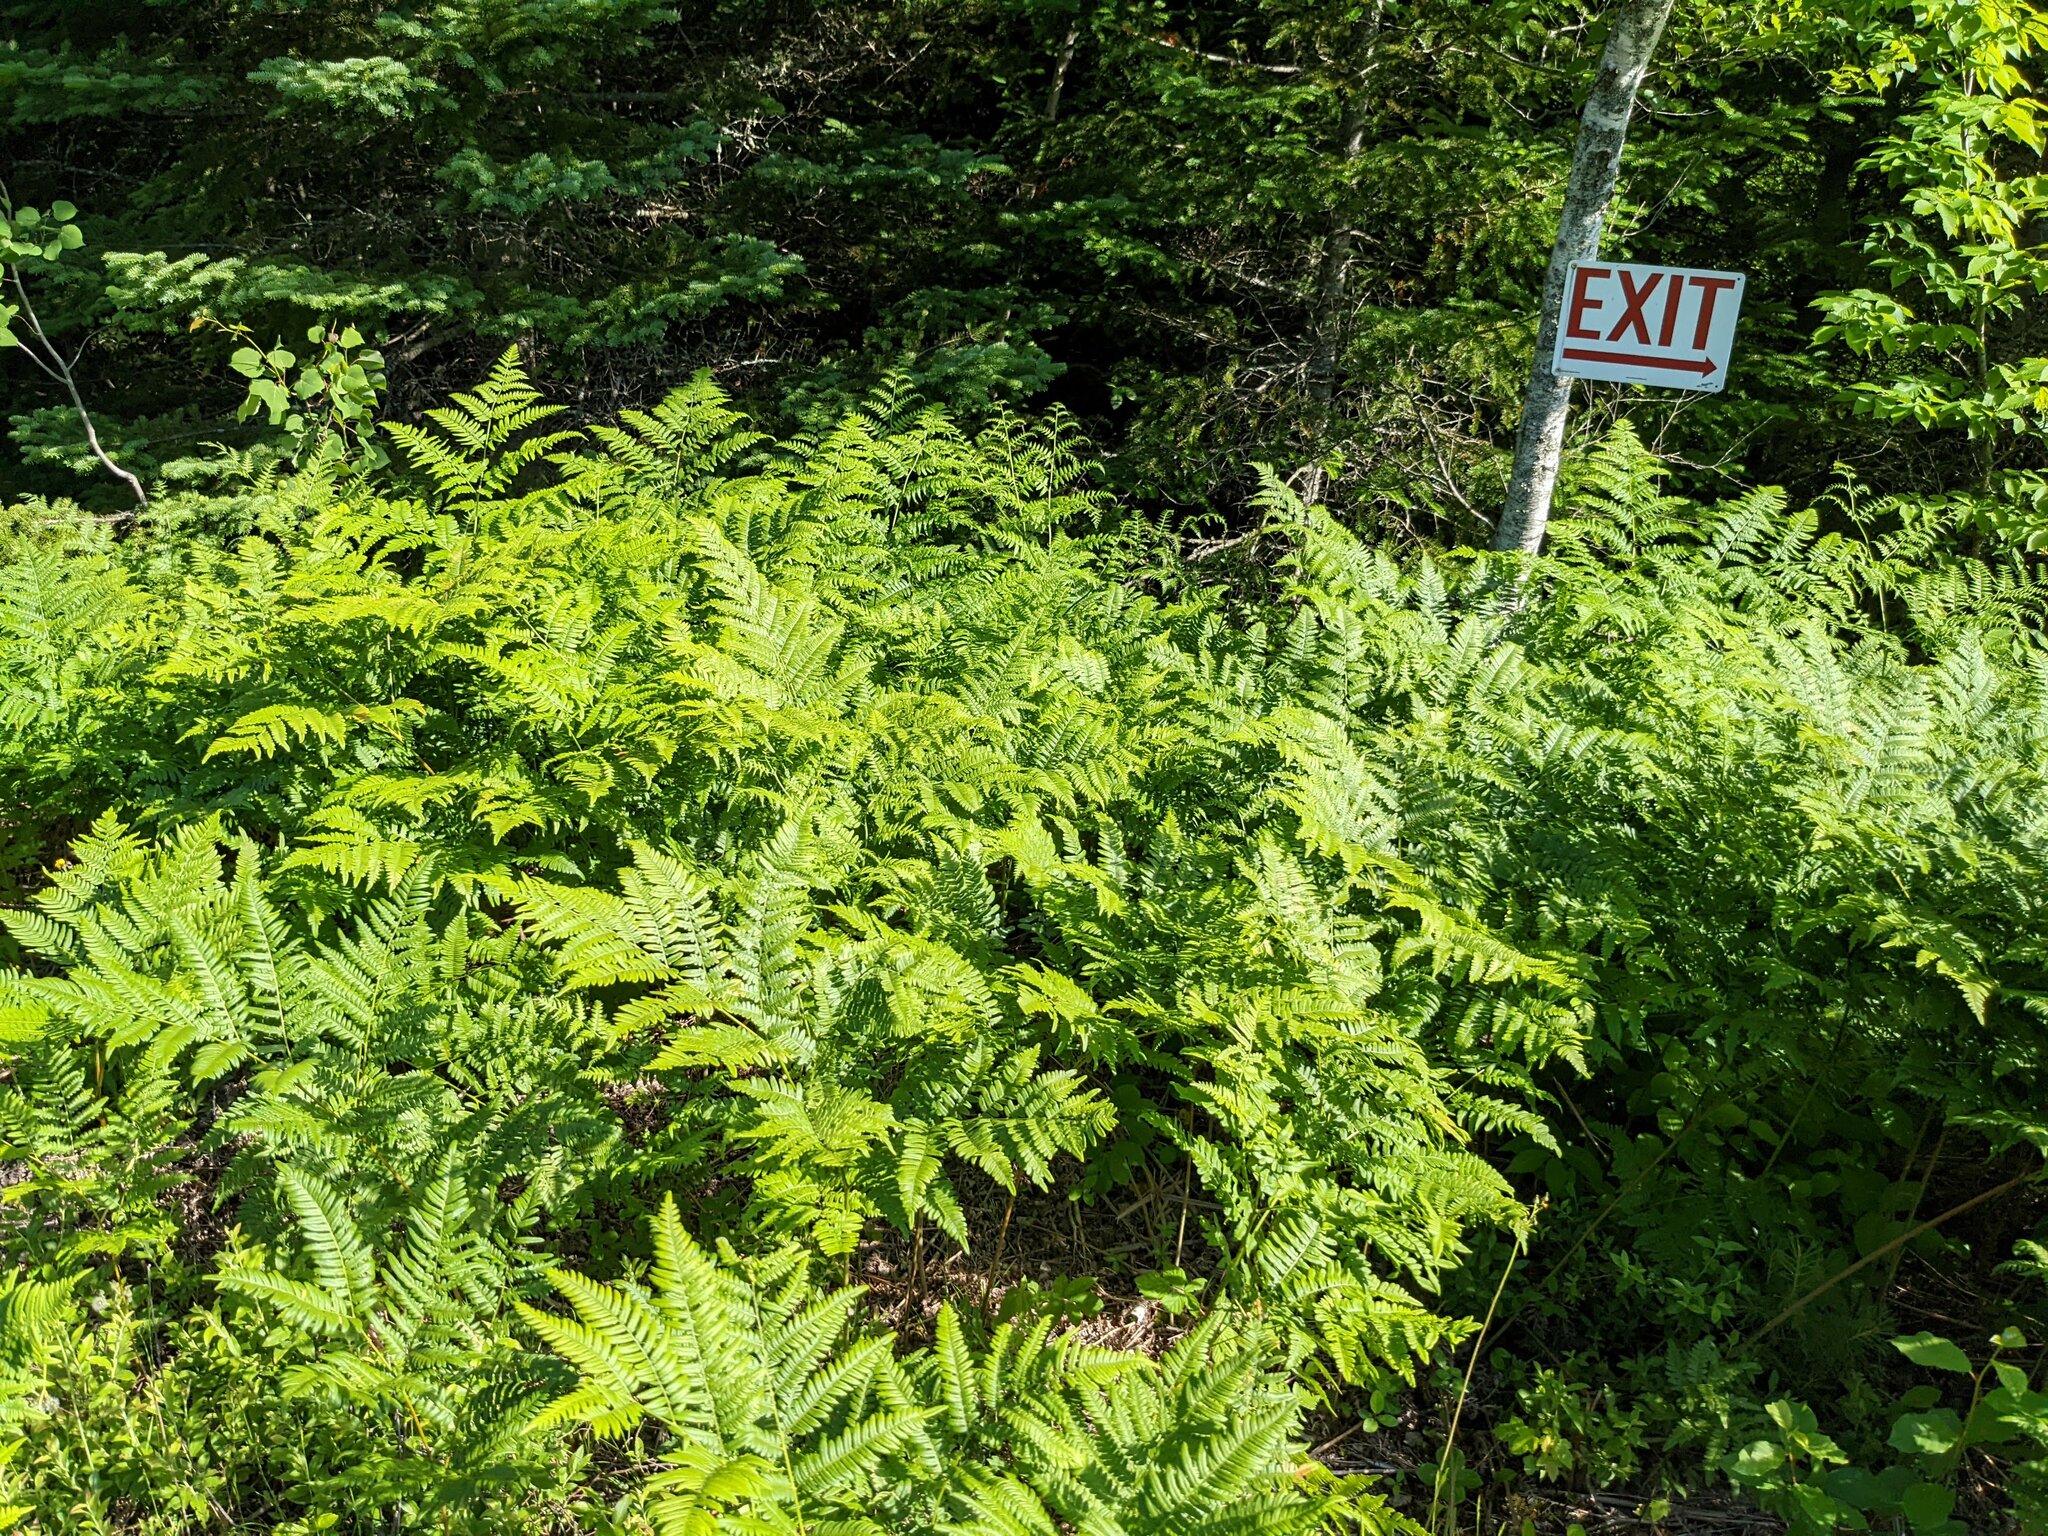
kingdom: Plantae
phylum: Tracheophyta
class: Polypodiopsida
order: Polypodiales
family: Dennstaedtiaceae
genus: Pteridium
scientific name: Pteridium aquilinum
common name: Bracken
